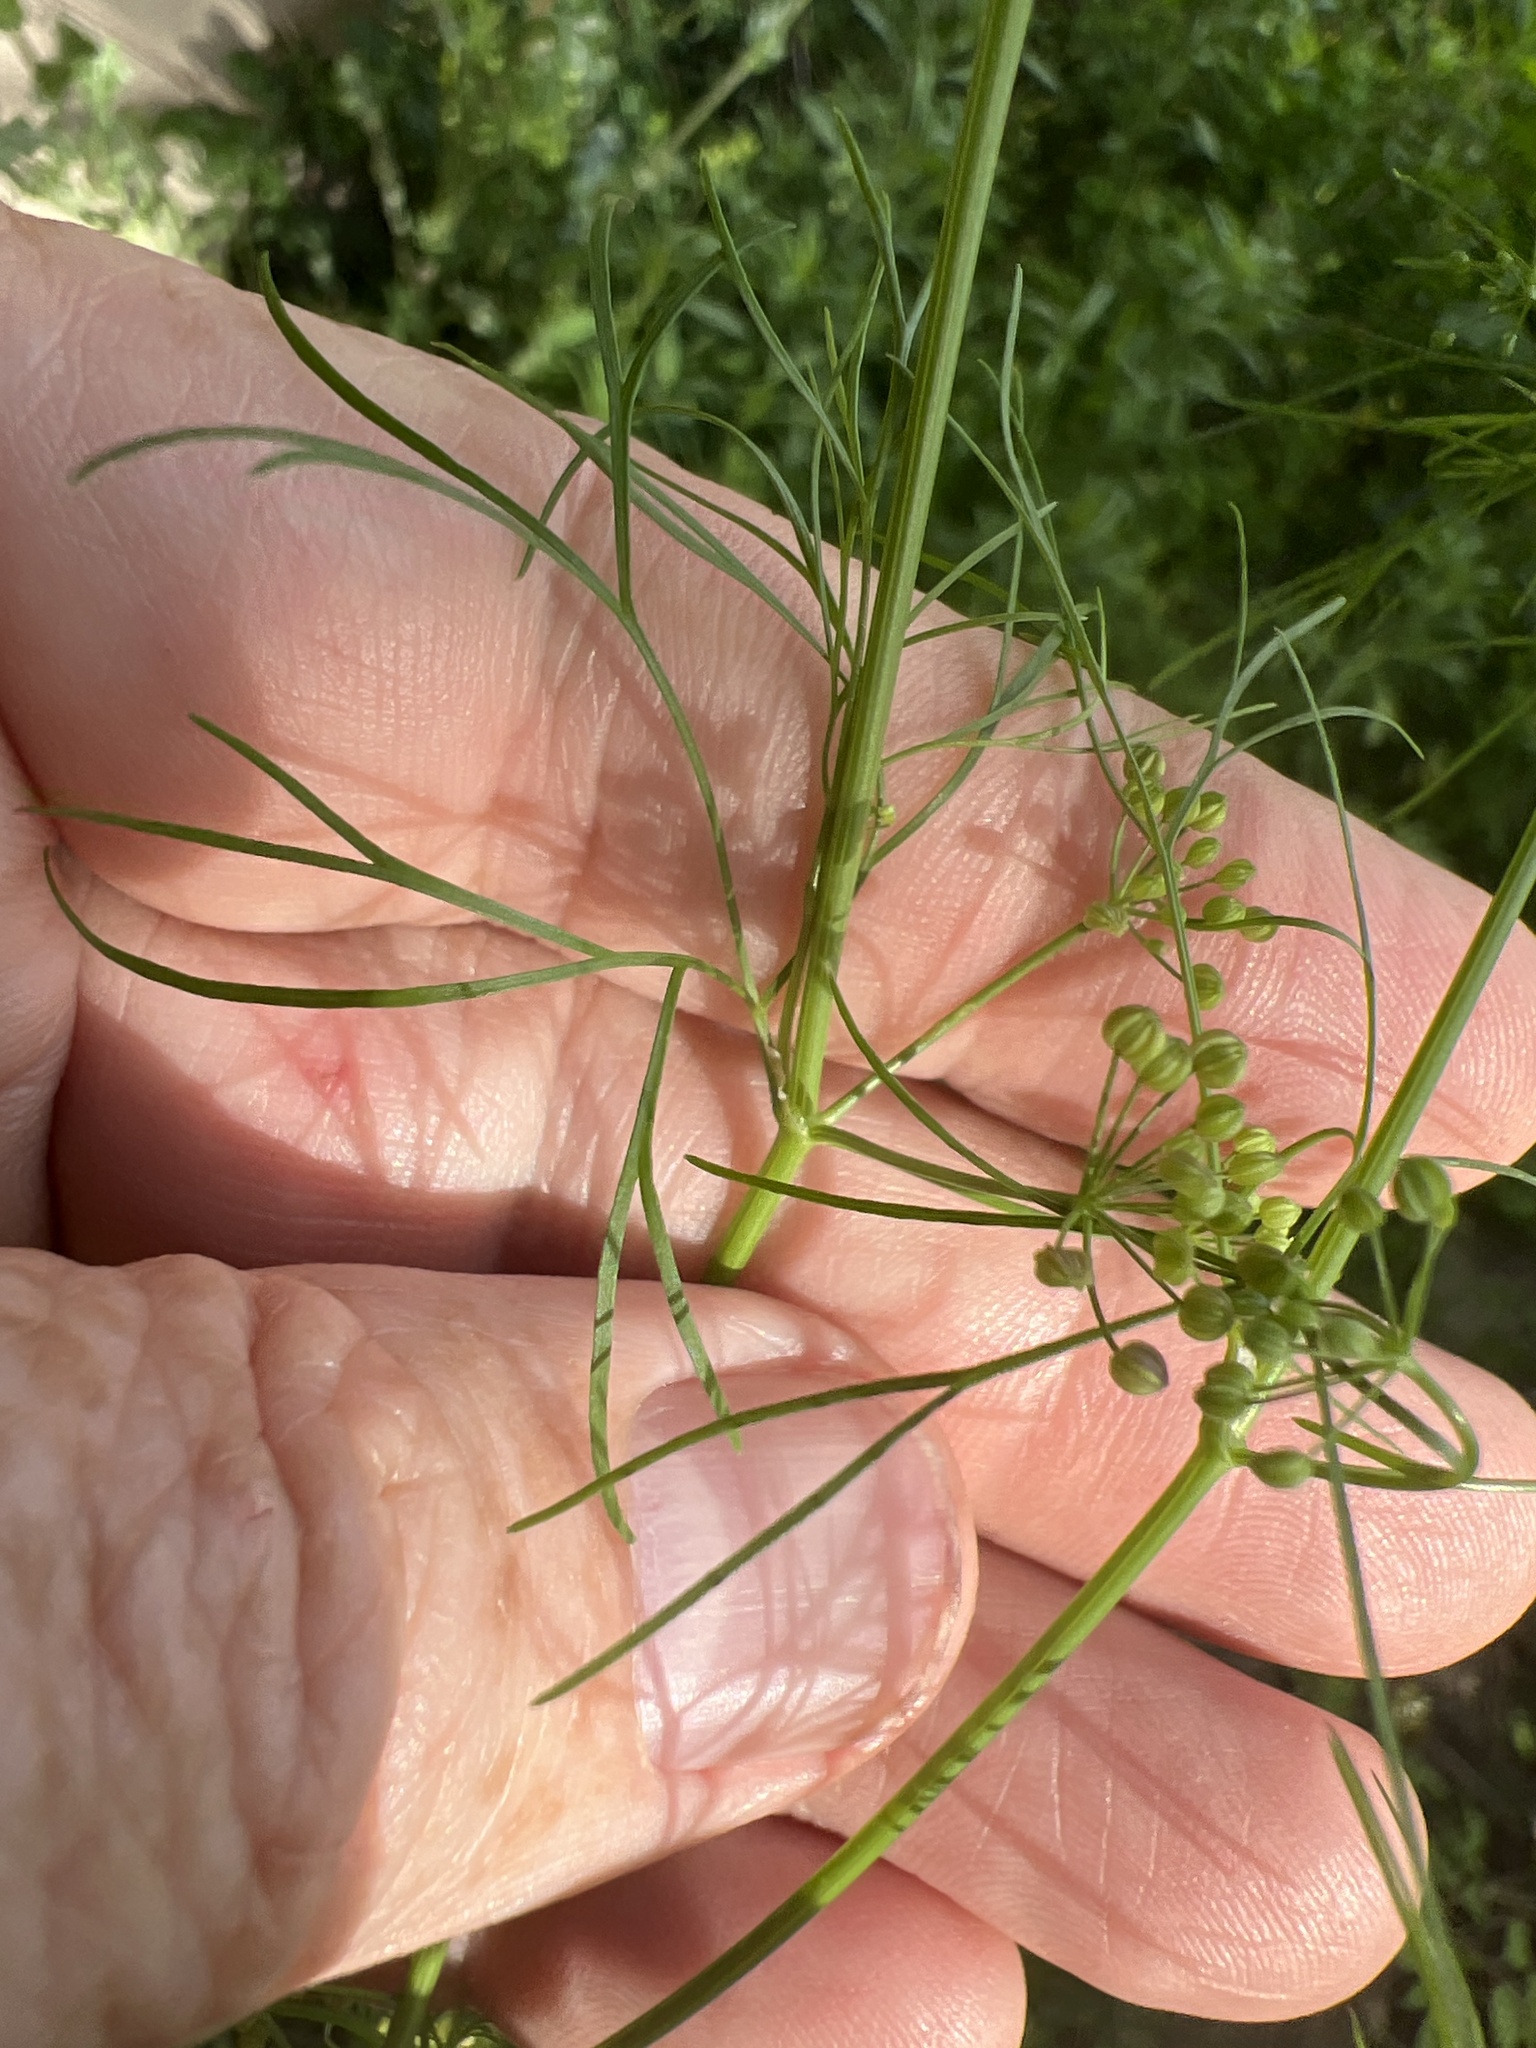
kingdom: Plantae
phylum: Tracheophyta
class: Magnoliopsida
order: Apiales
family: Apiaceae
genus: Cyclospermum
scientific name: Cyclospermum leptophyllum
